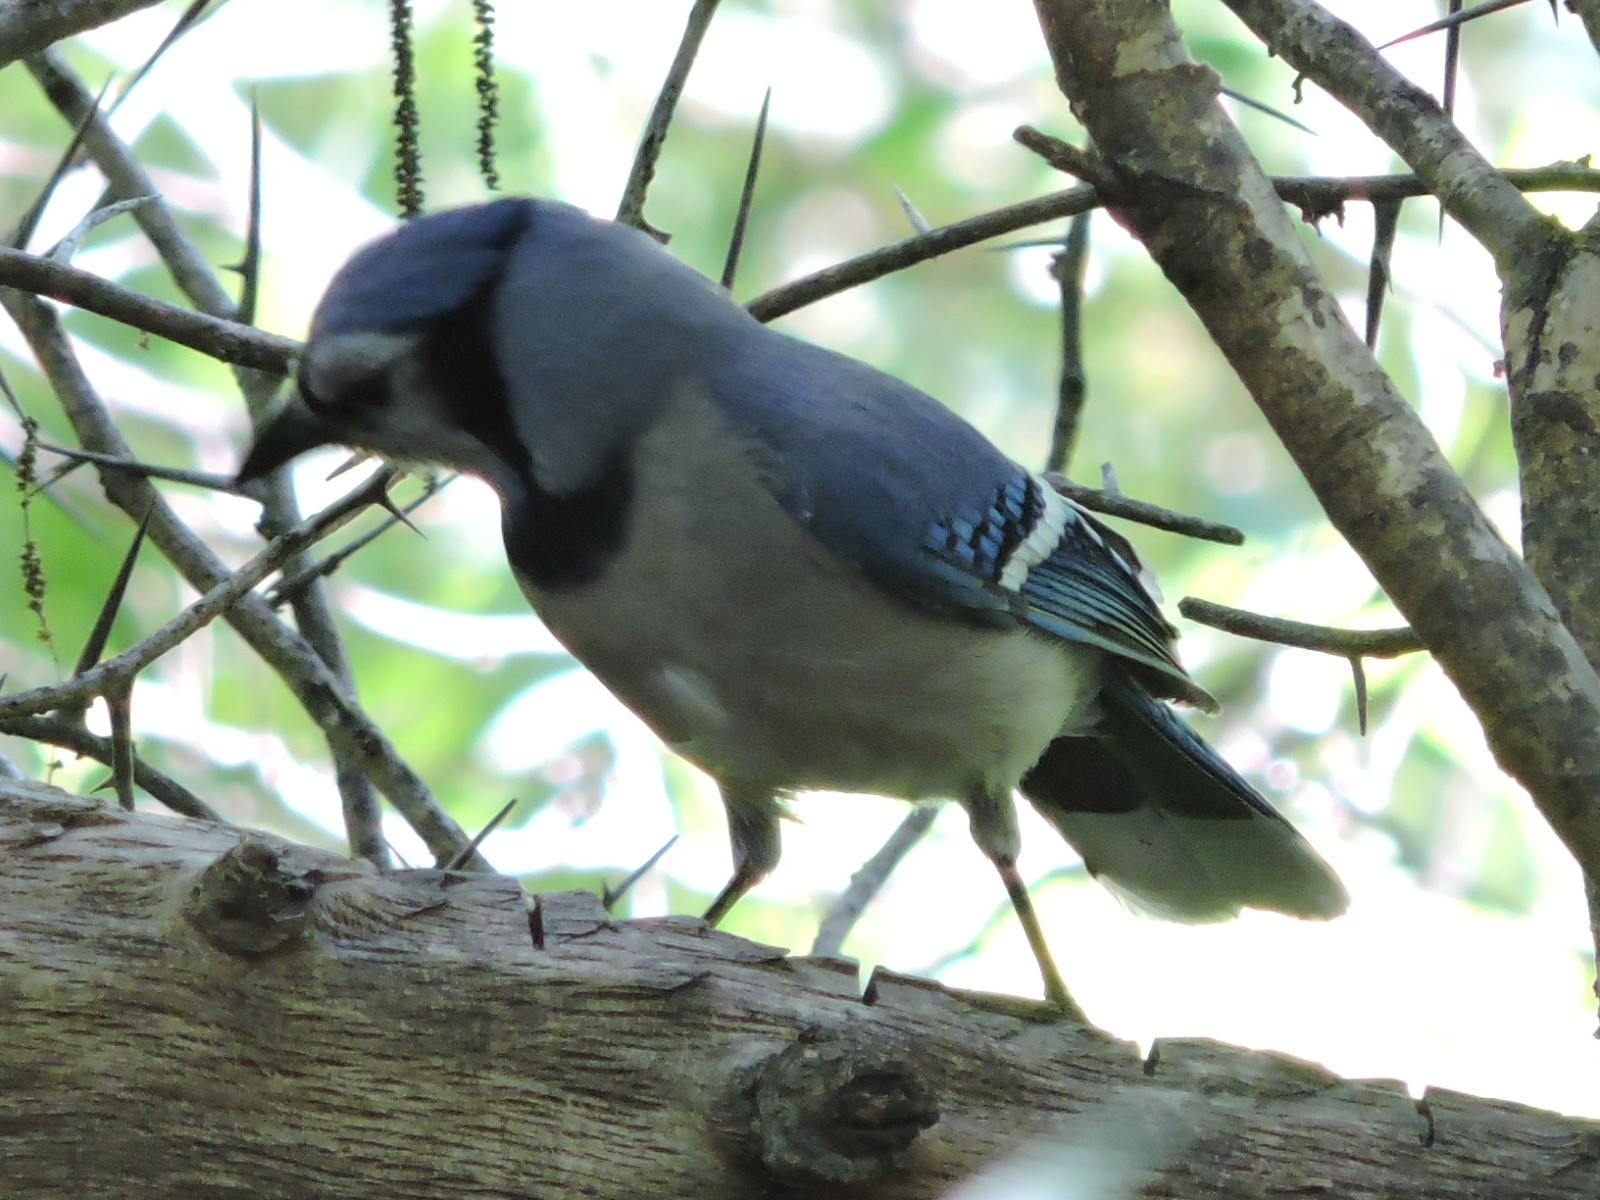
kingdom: Animalia
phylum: Chordata
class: Aves
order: Passeriformes
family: Corvidae
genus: Cyanocitta
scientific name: Cyanocitta cristata
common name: Blue jay
